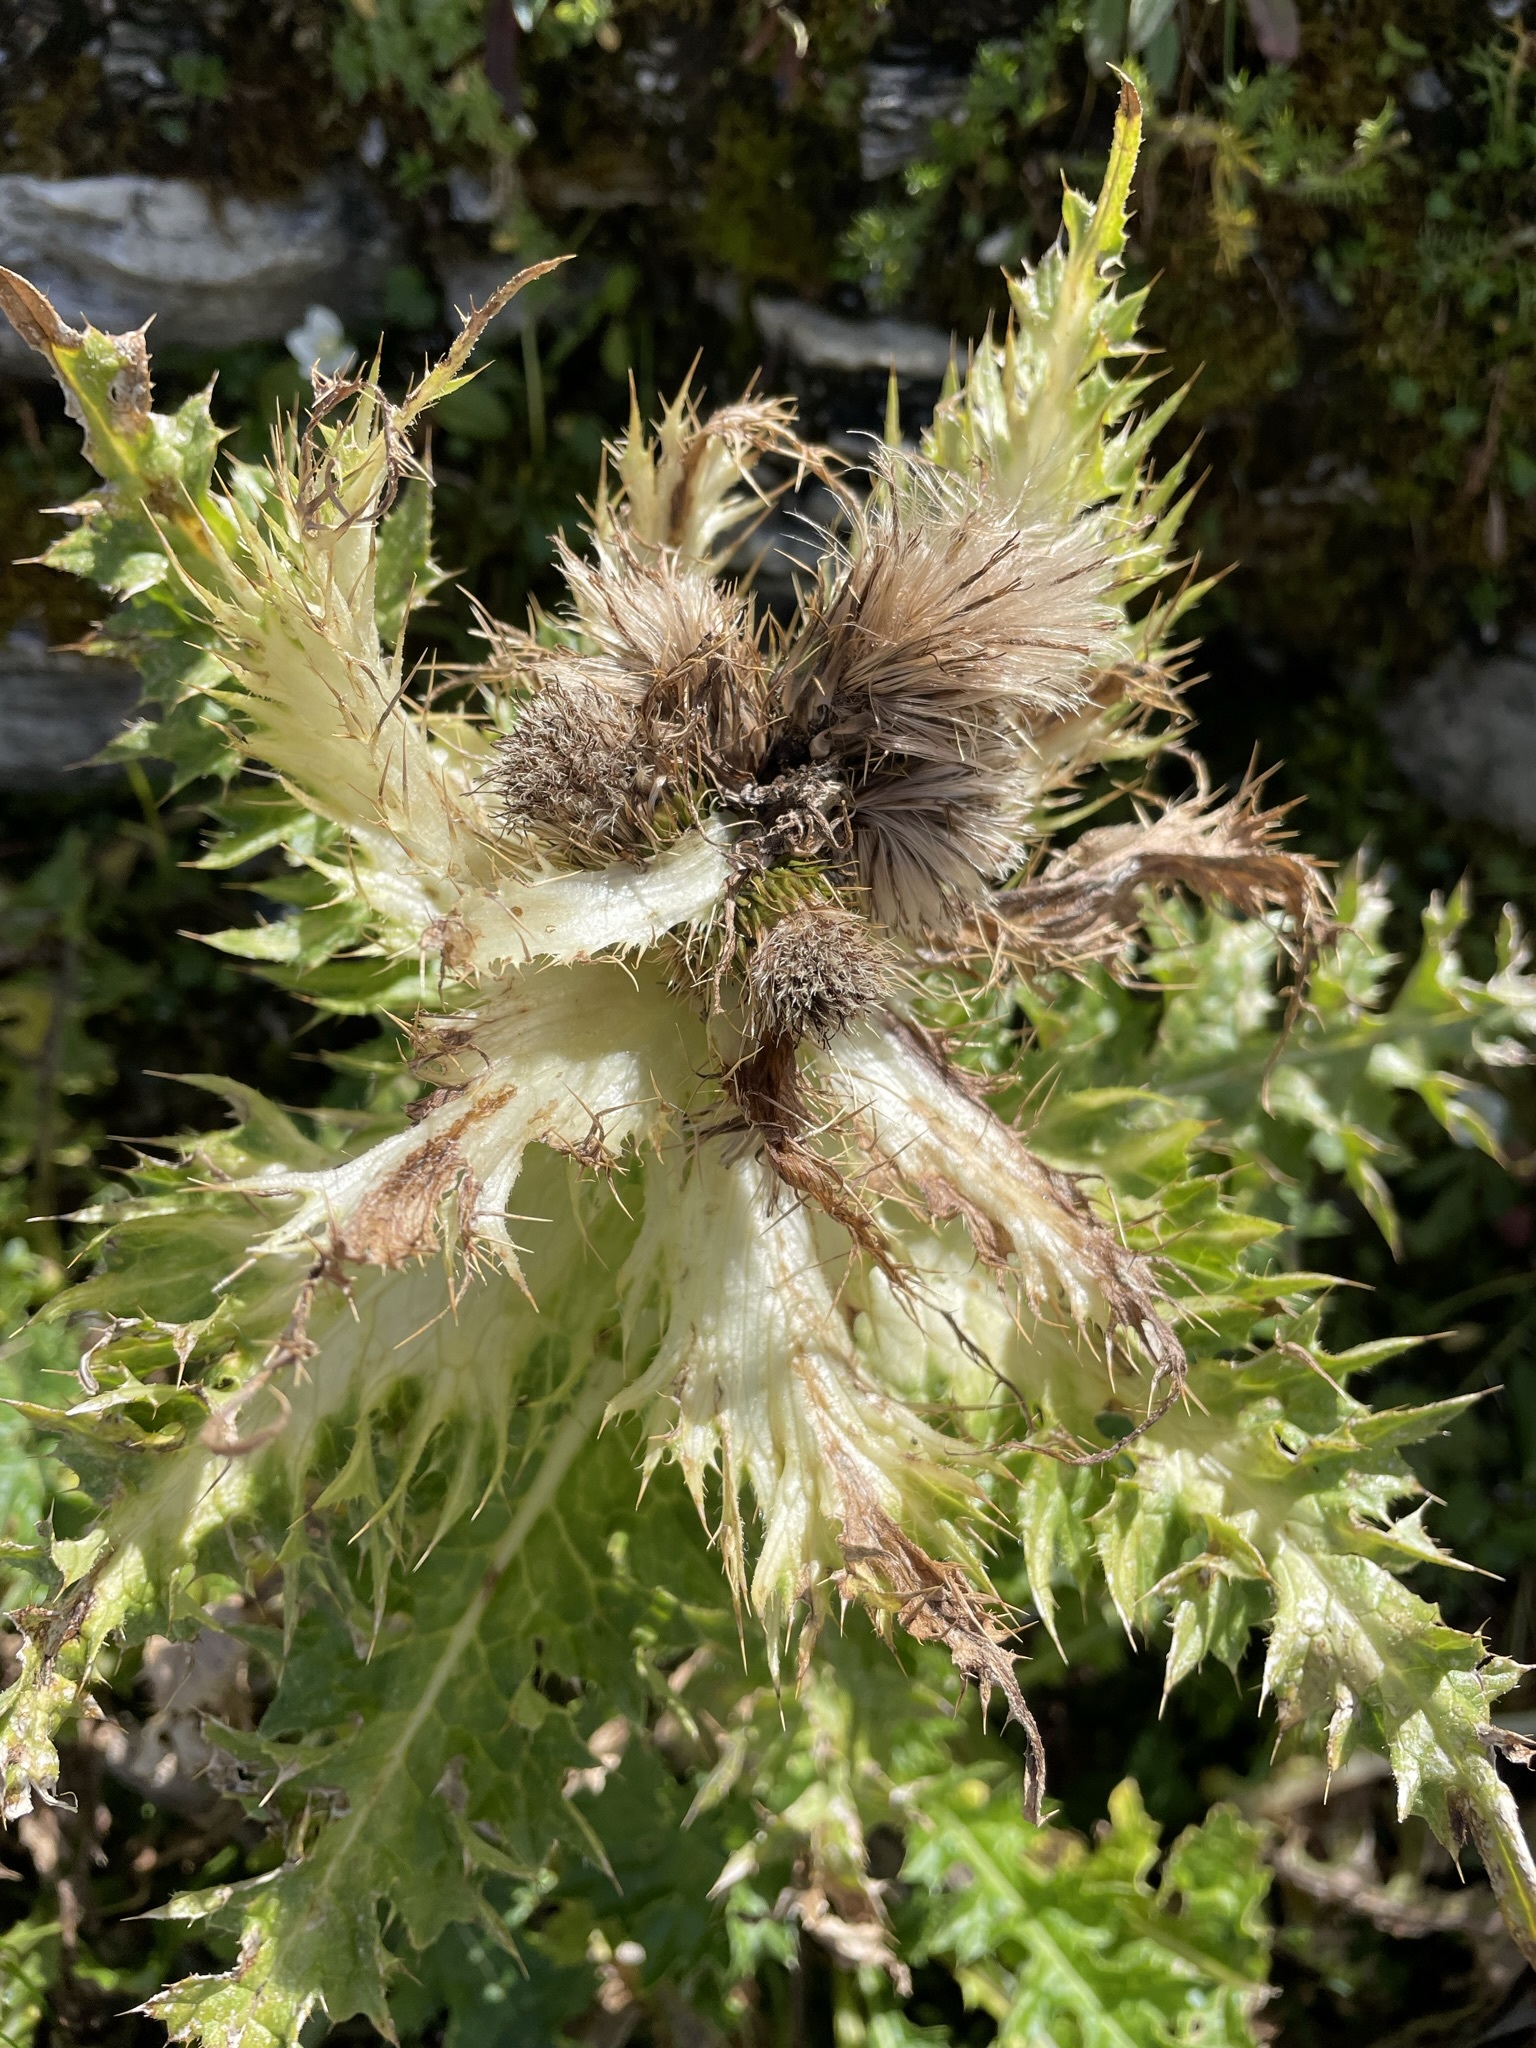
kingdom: Plantae
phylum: Tracheophyta
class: Magnoliopsida
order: Asterales
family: Asteraceae
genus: Cirsium
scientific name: Cirsium spinosissimum
